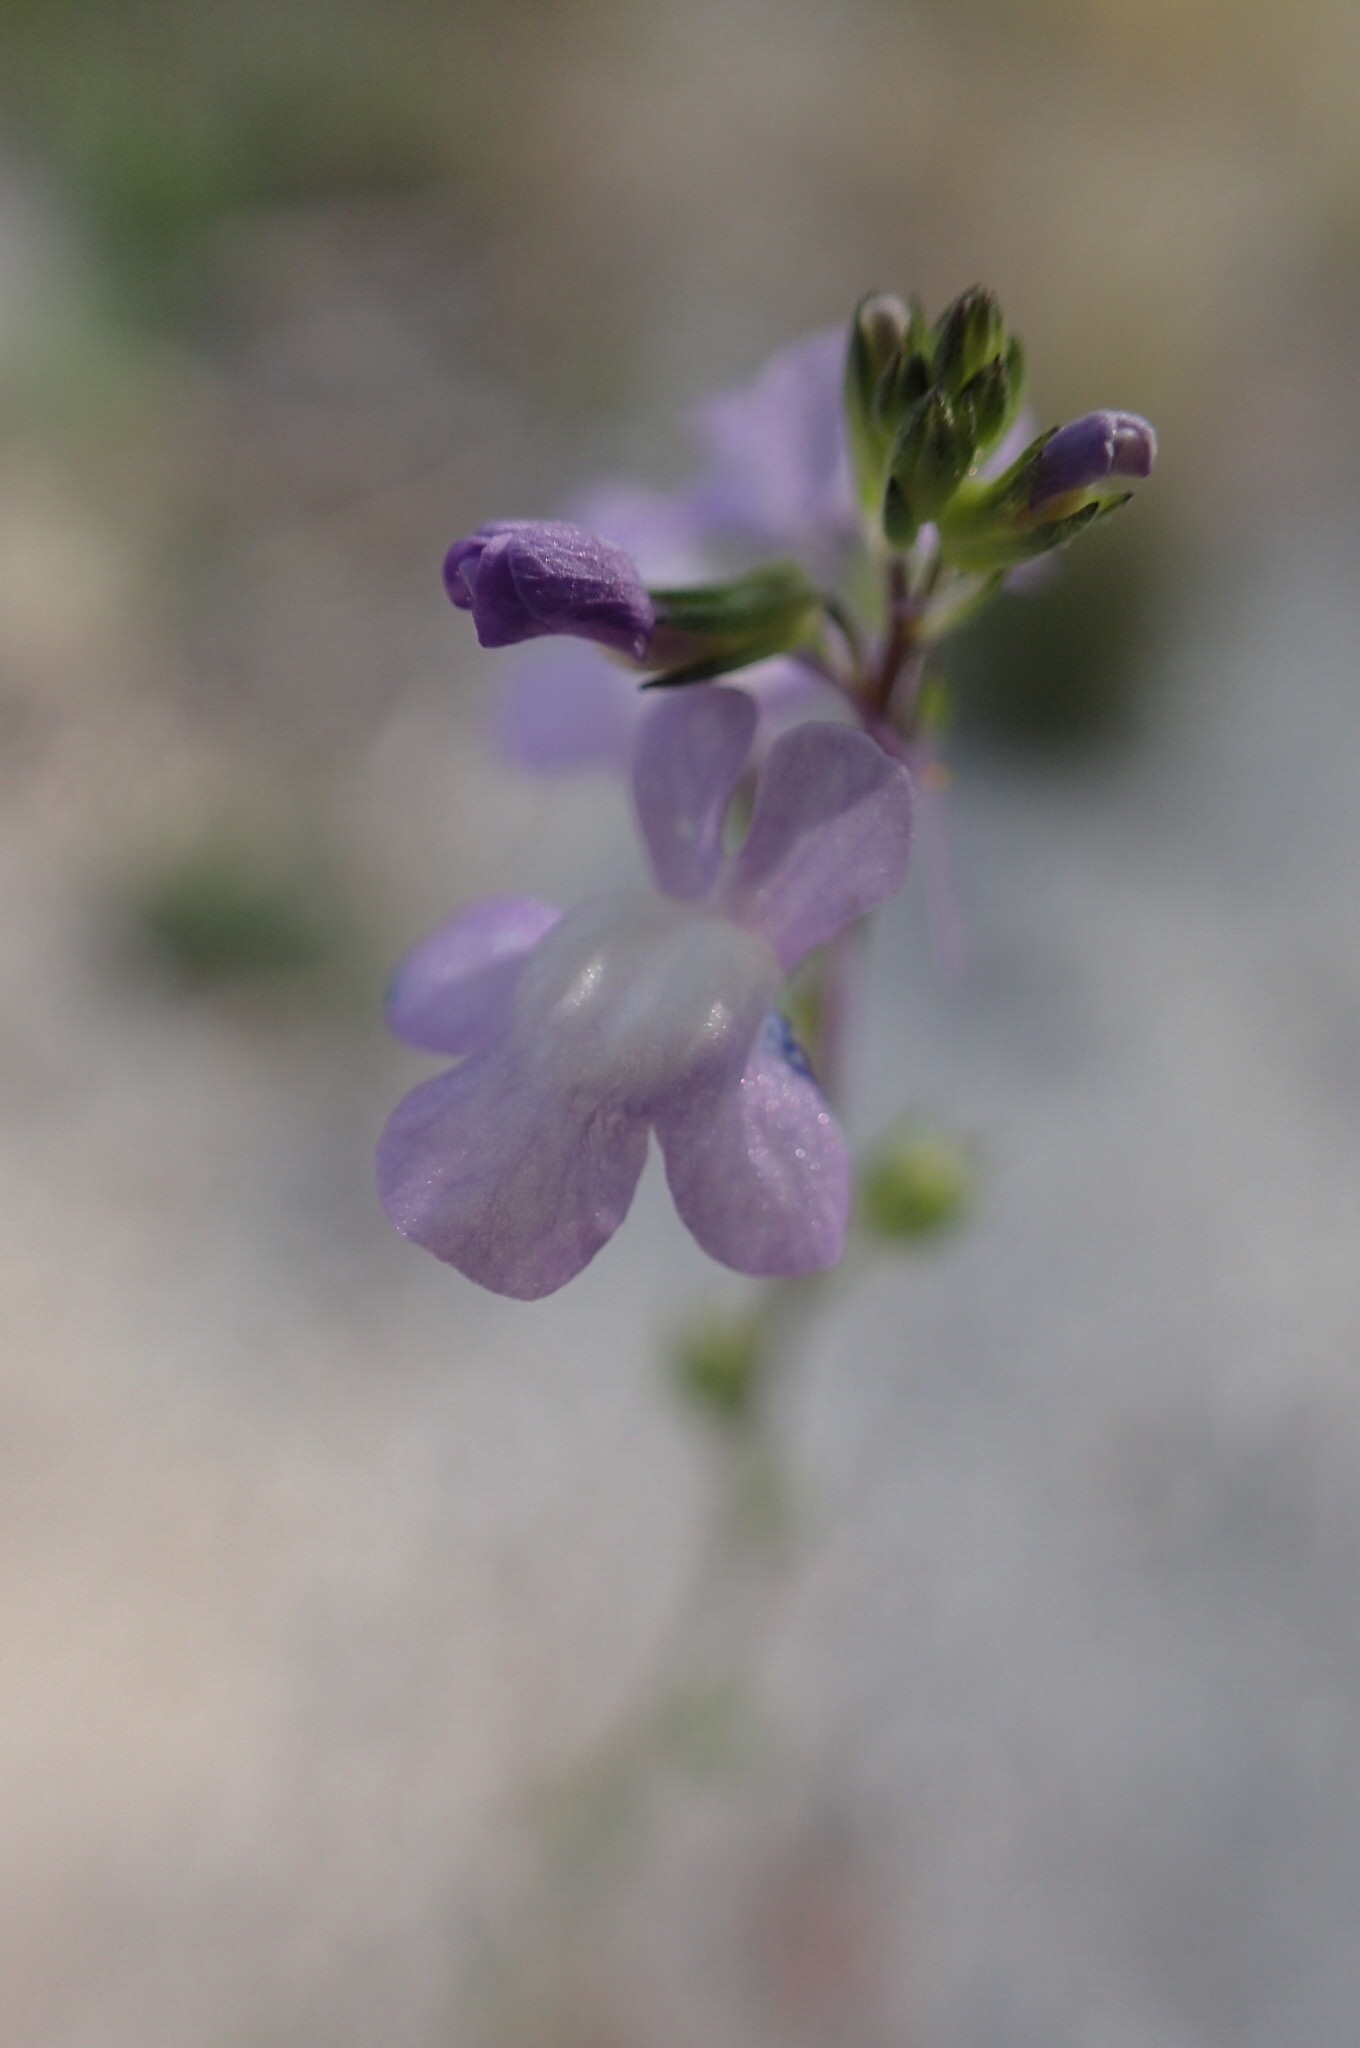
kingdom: Plantae
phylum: Tracheophyta
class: Magnoliopsida
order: Lamiales
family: Plantaginaceae
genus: Nuttallanthus
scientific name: Nuttallanthus canadensis
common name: Blue toadflax
